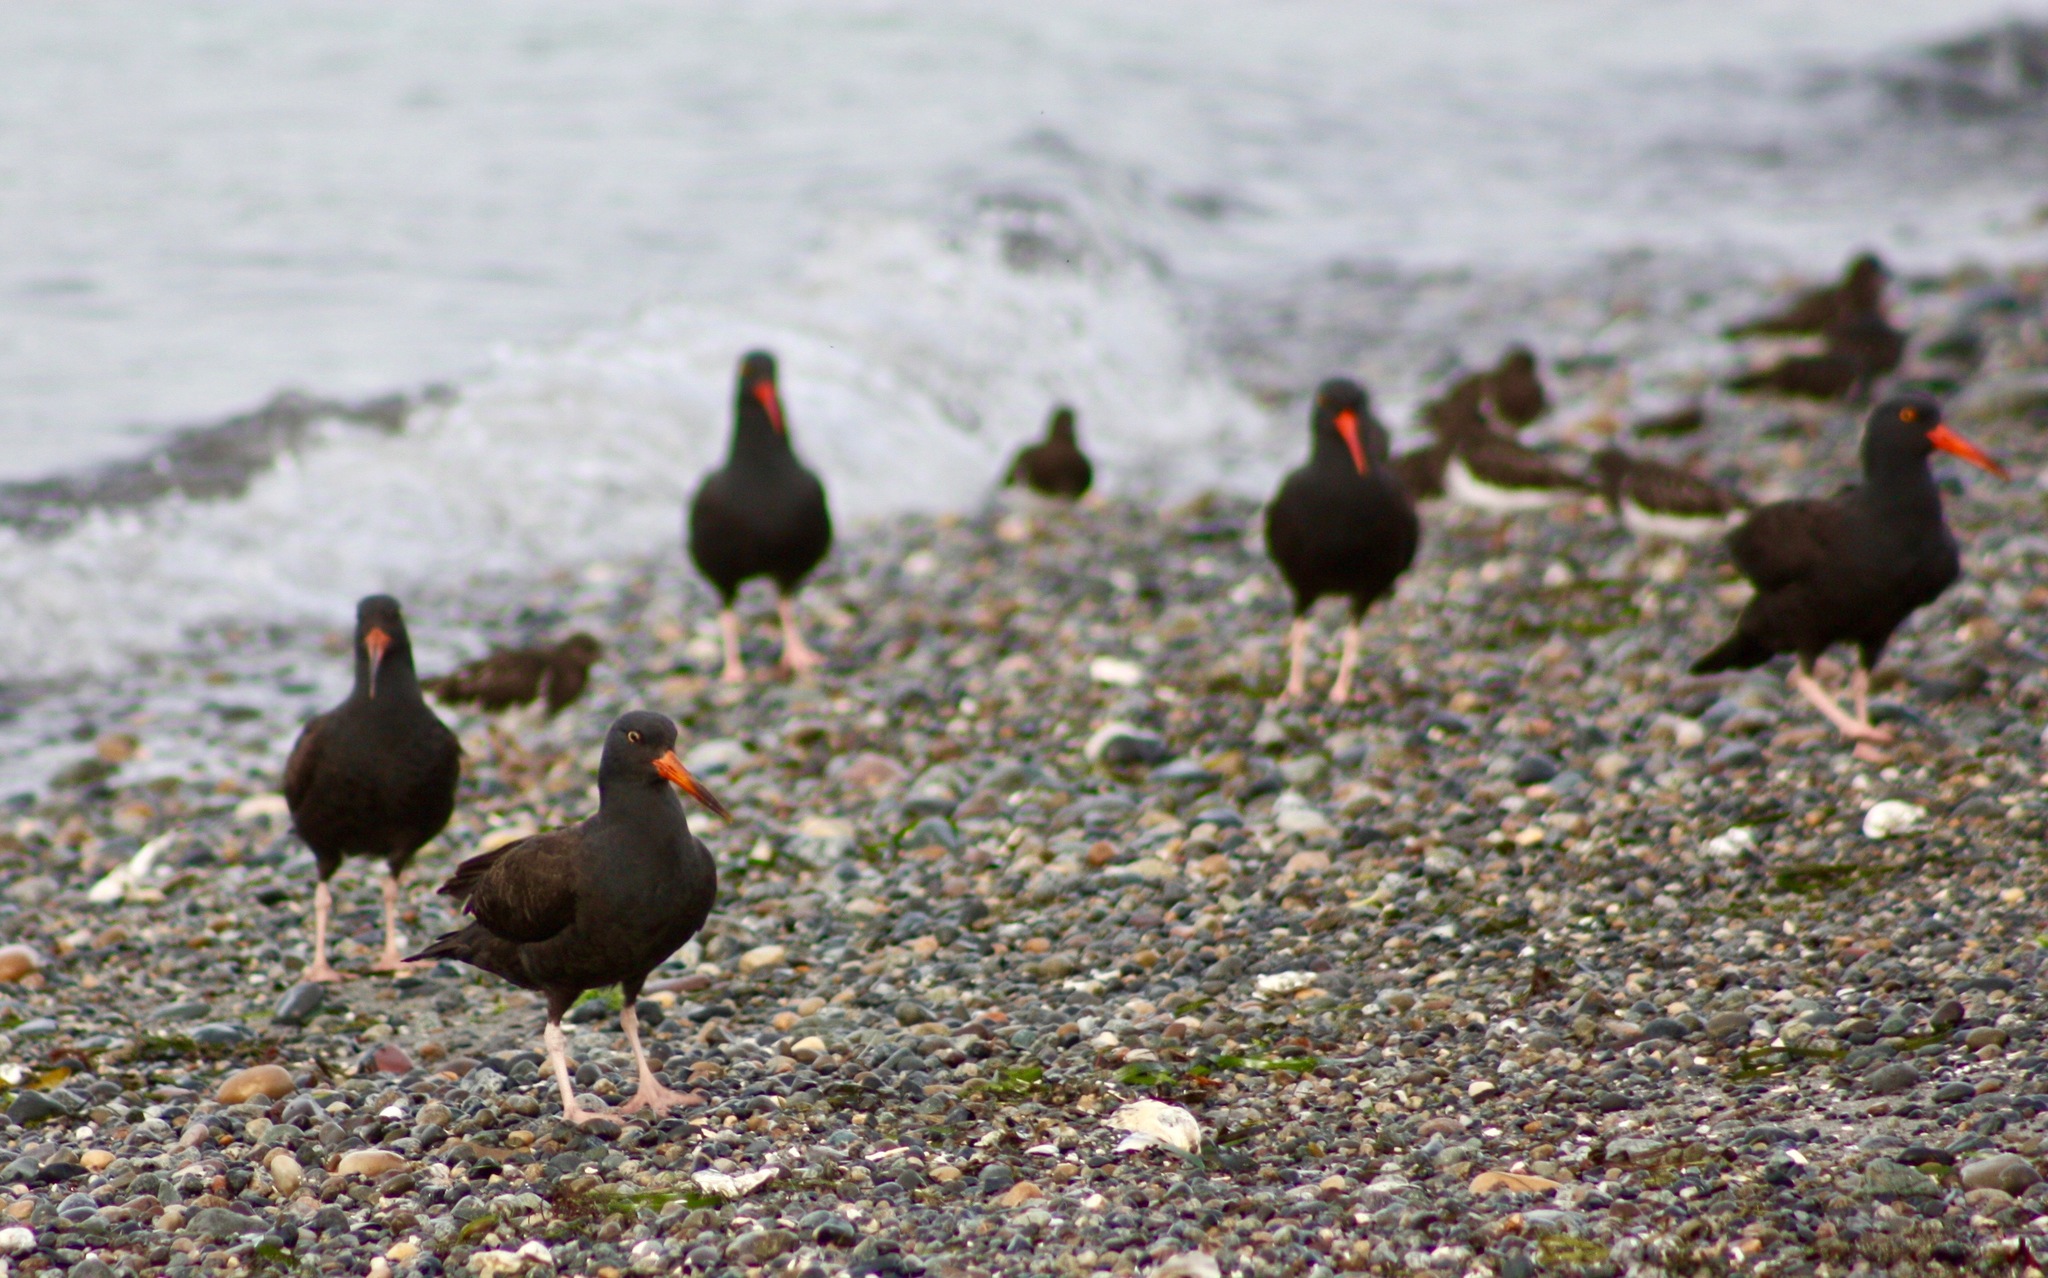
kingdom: Animalia
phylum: Chordata
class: Aves
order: Charadriiformes
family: Haematopodidae
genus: Haematopus
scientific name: Haematopus bachmani
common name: Black oystercatcher
